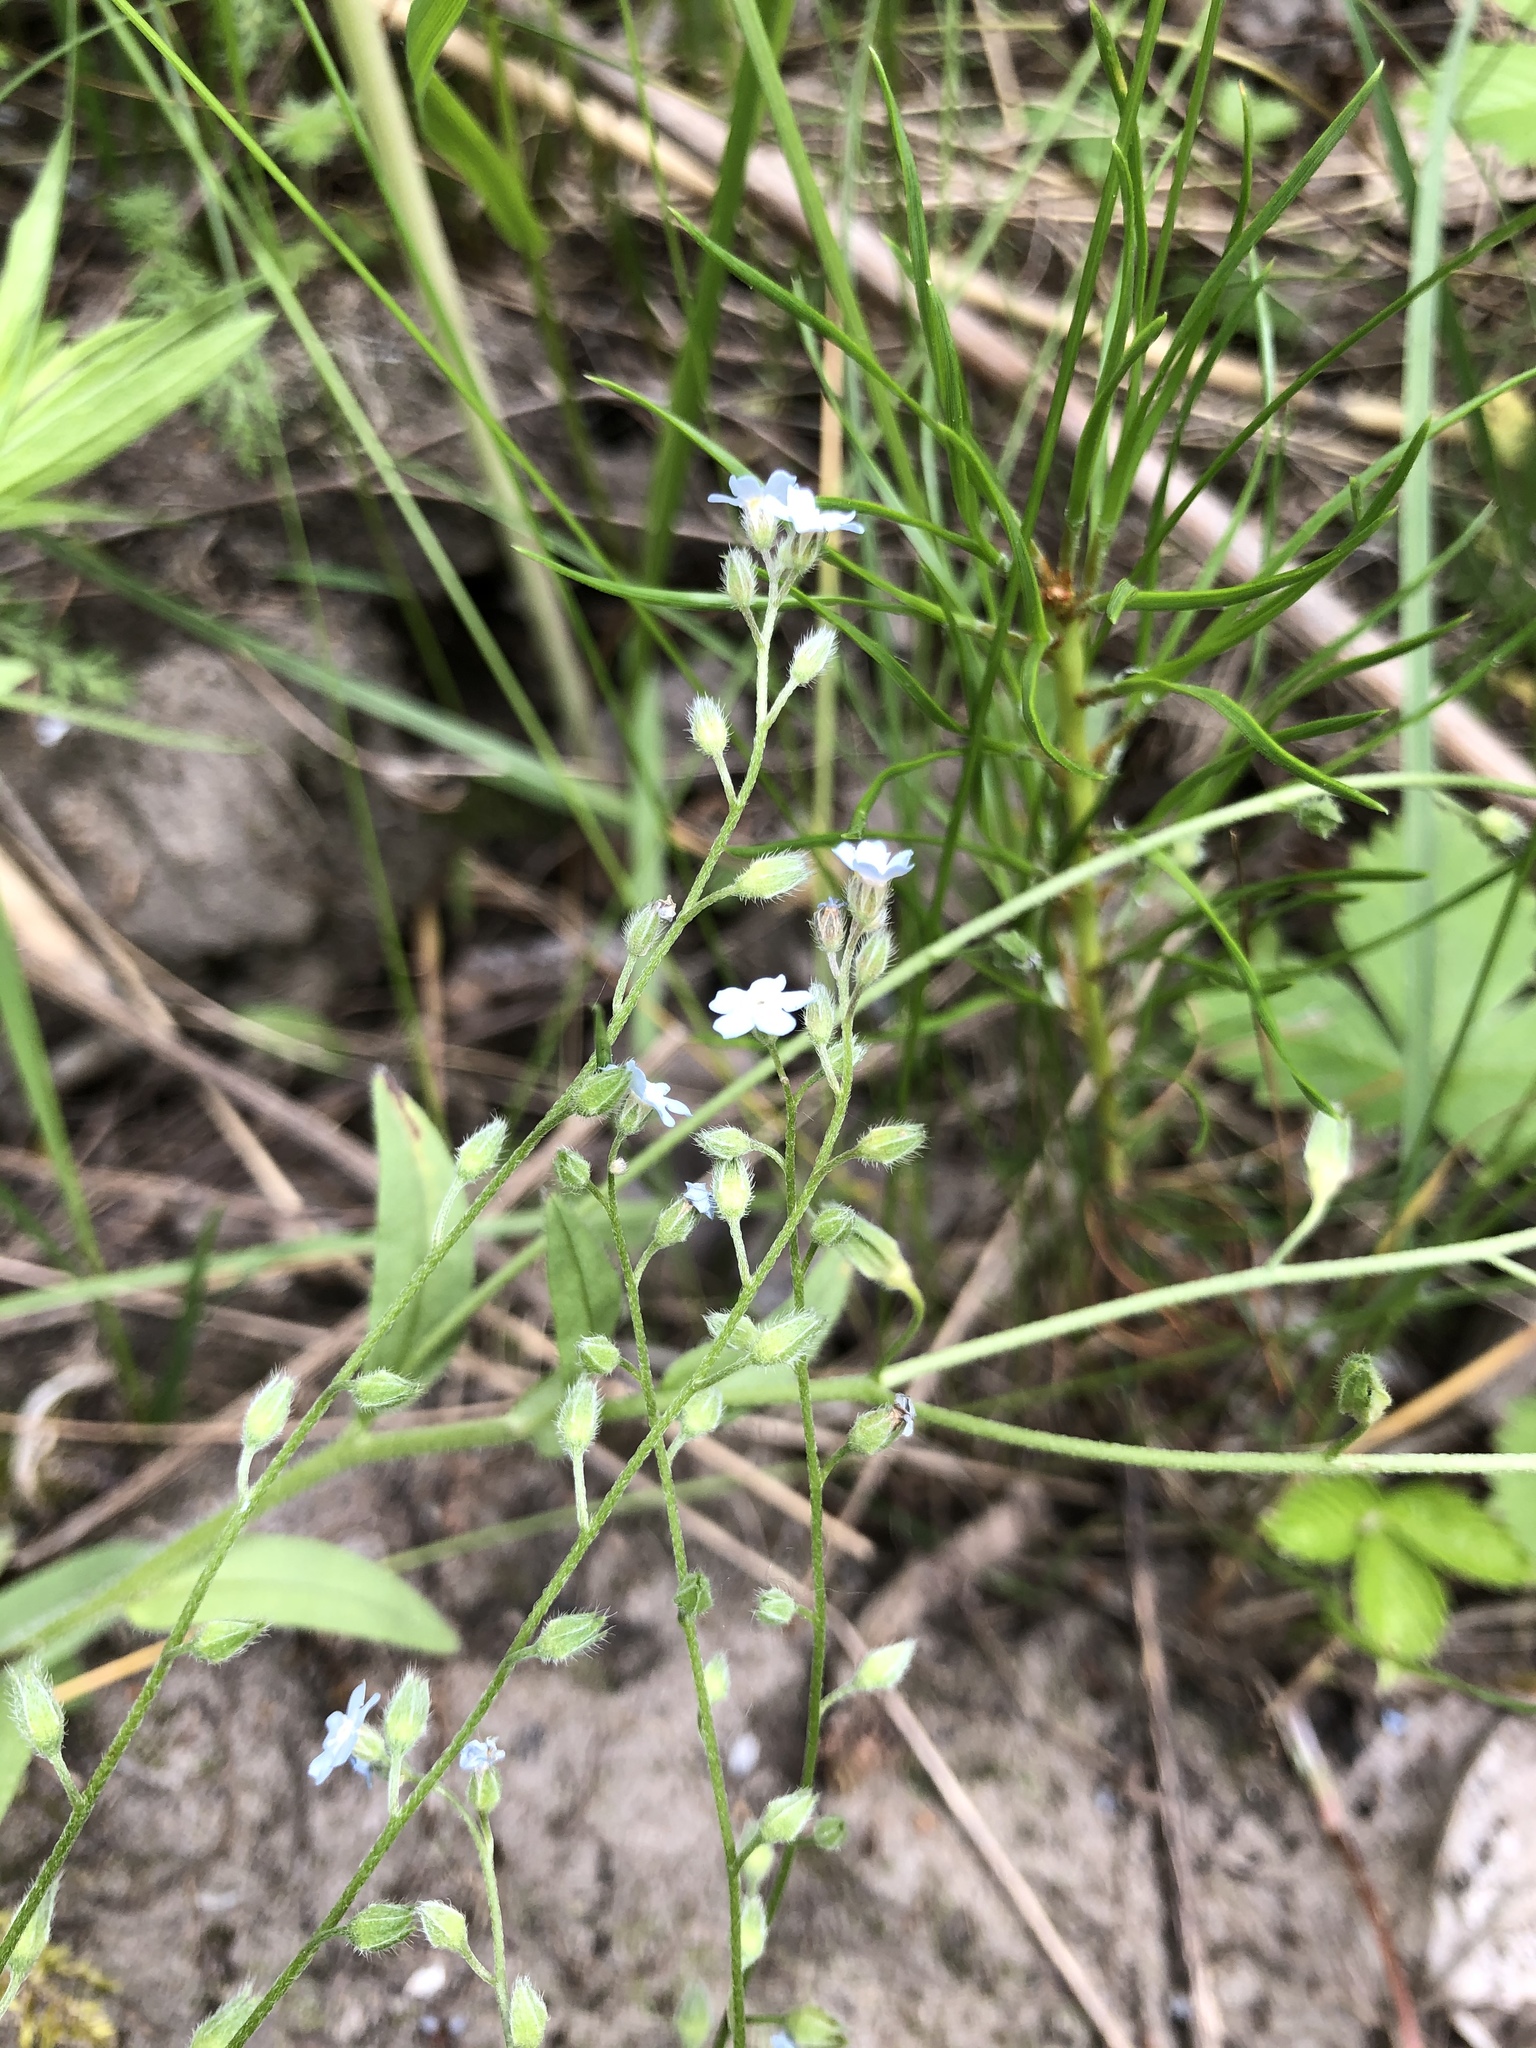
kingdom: Plantae
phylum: Tracheophyta
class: Magnoliopsida
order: Boraginales
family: Boraginaceae
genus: Myosotis
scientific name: Myosotis imitata
